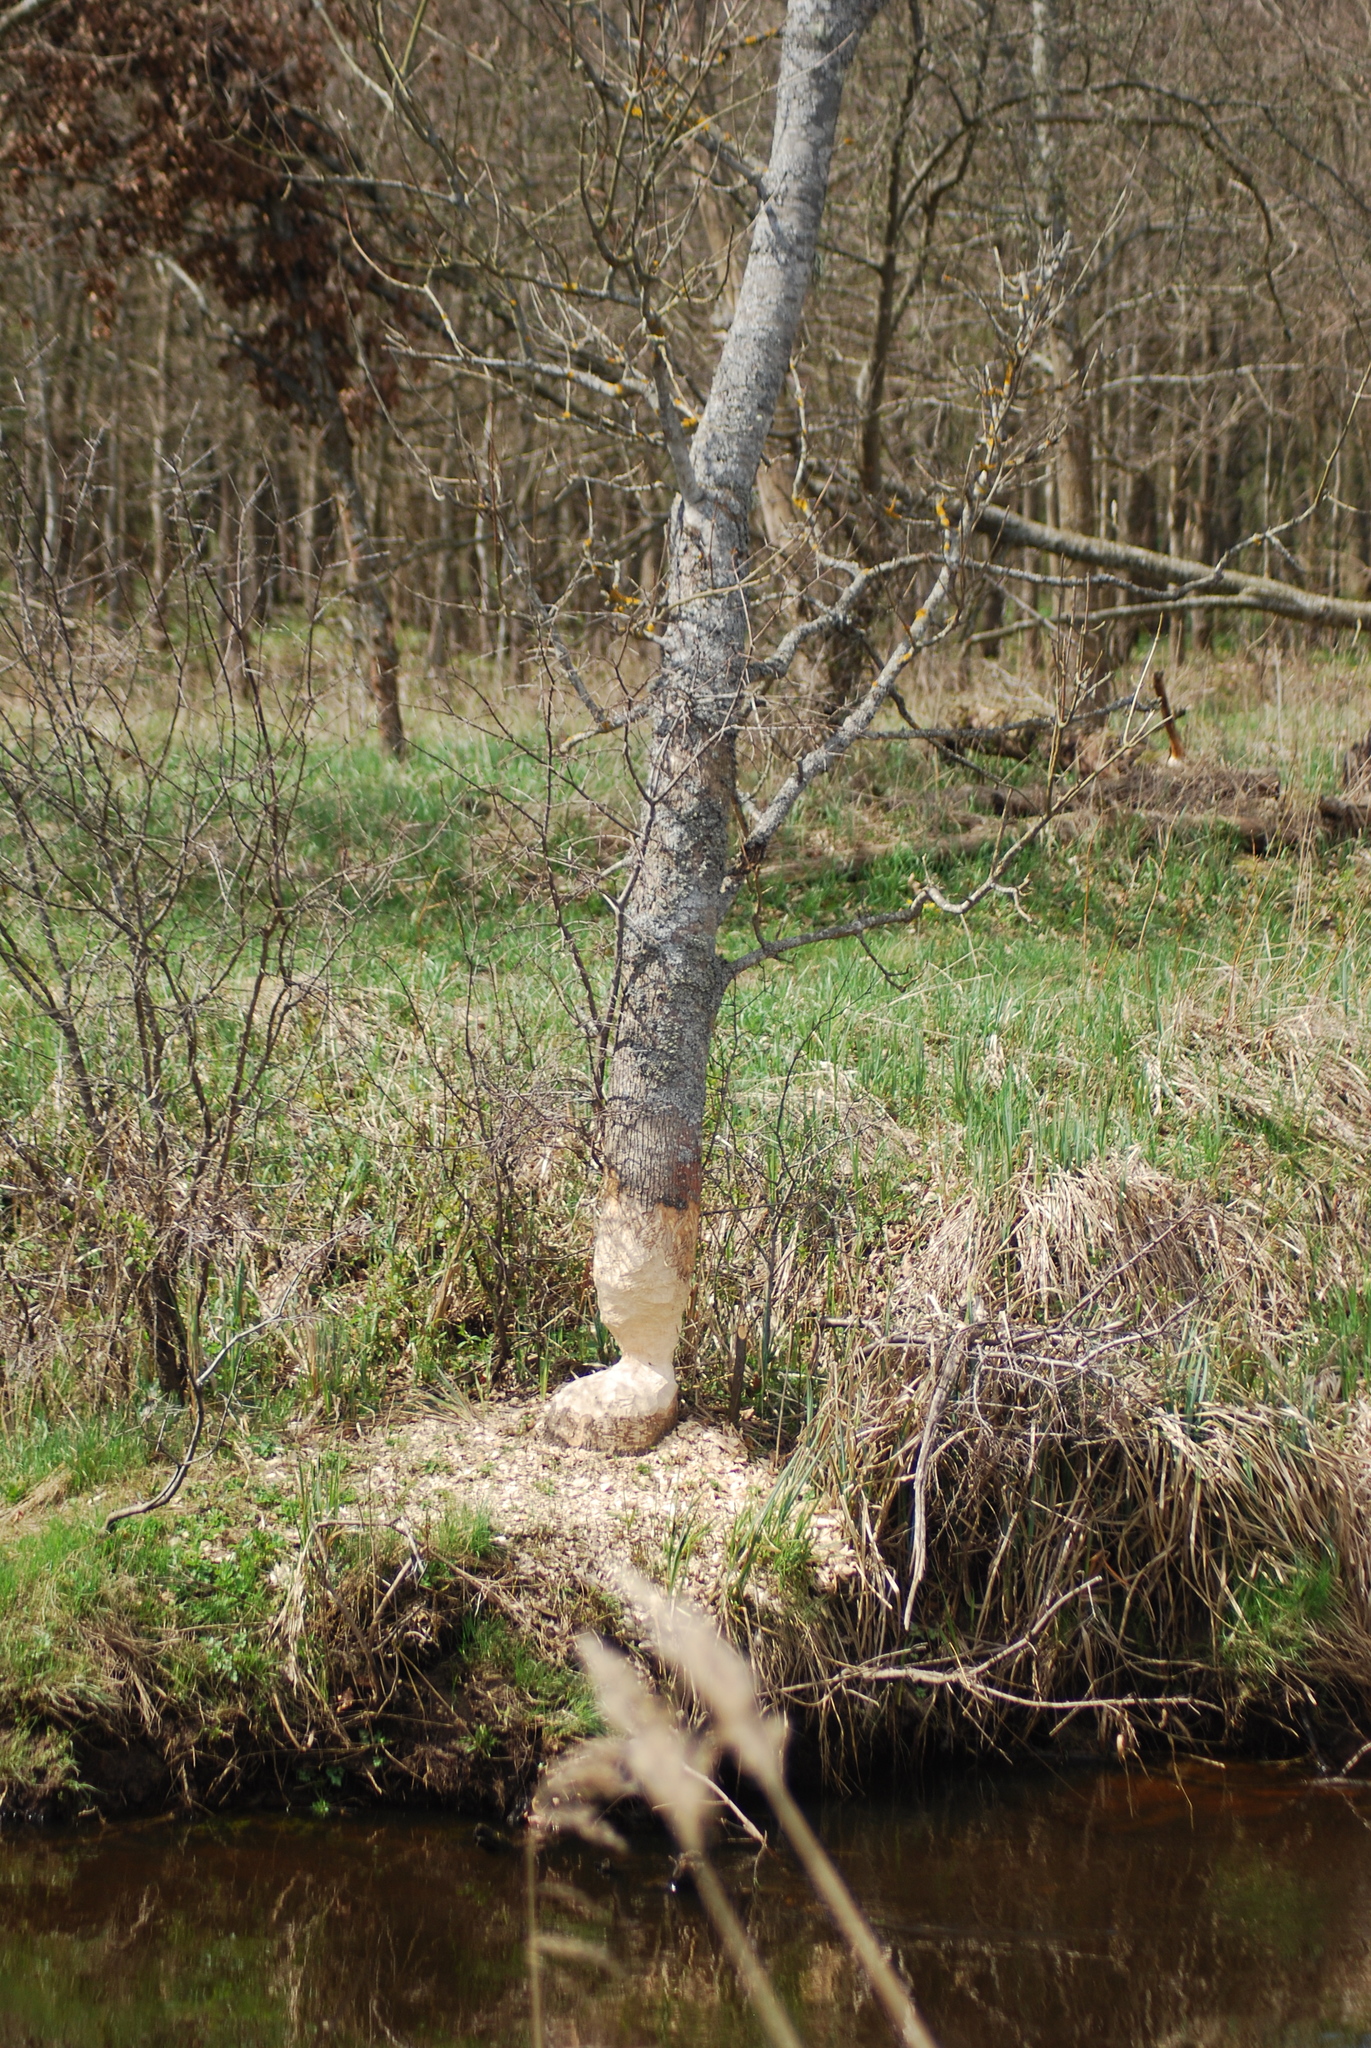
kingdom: Animalia
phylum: Chordata
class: Mammalia
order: Rodentia
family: Castoridae
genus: Castor
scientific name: Castor fiber
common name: Eurasian beaver
